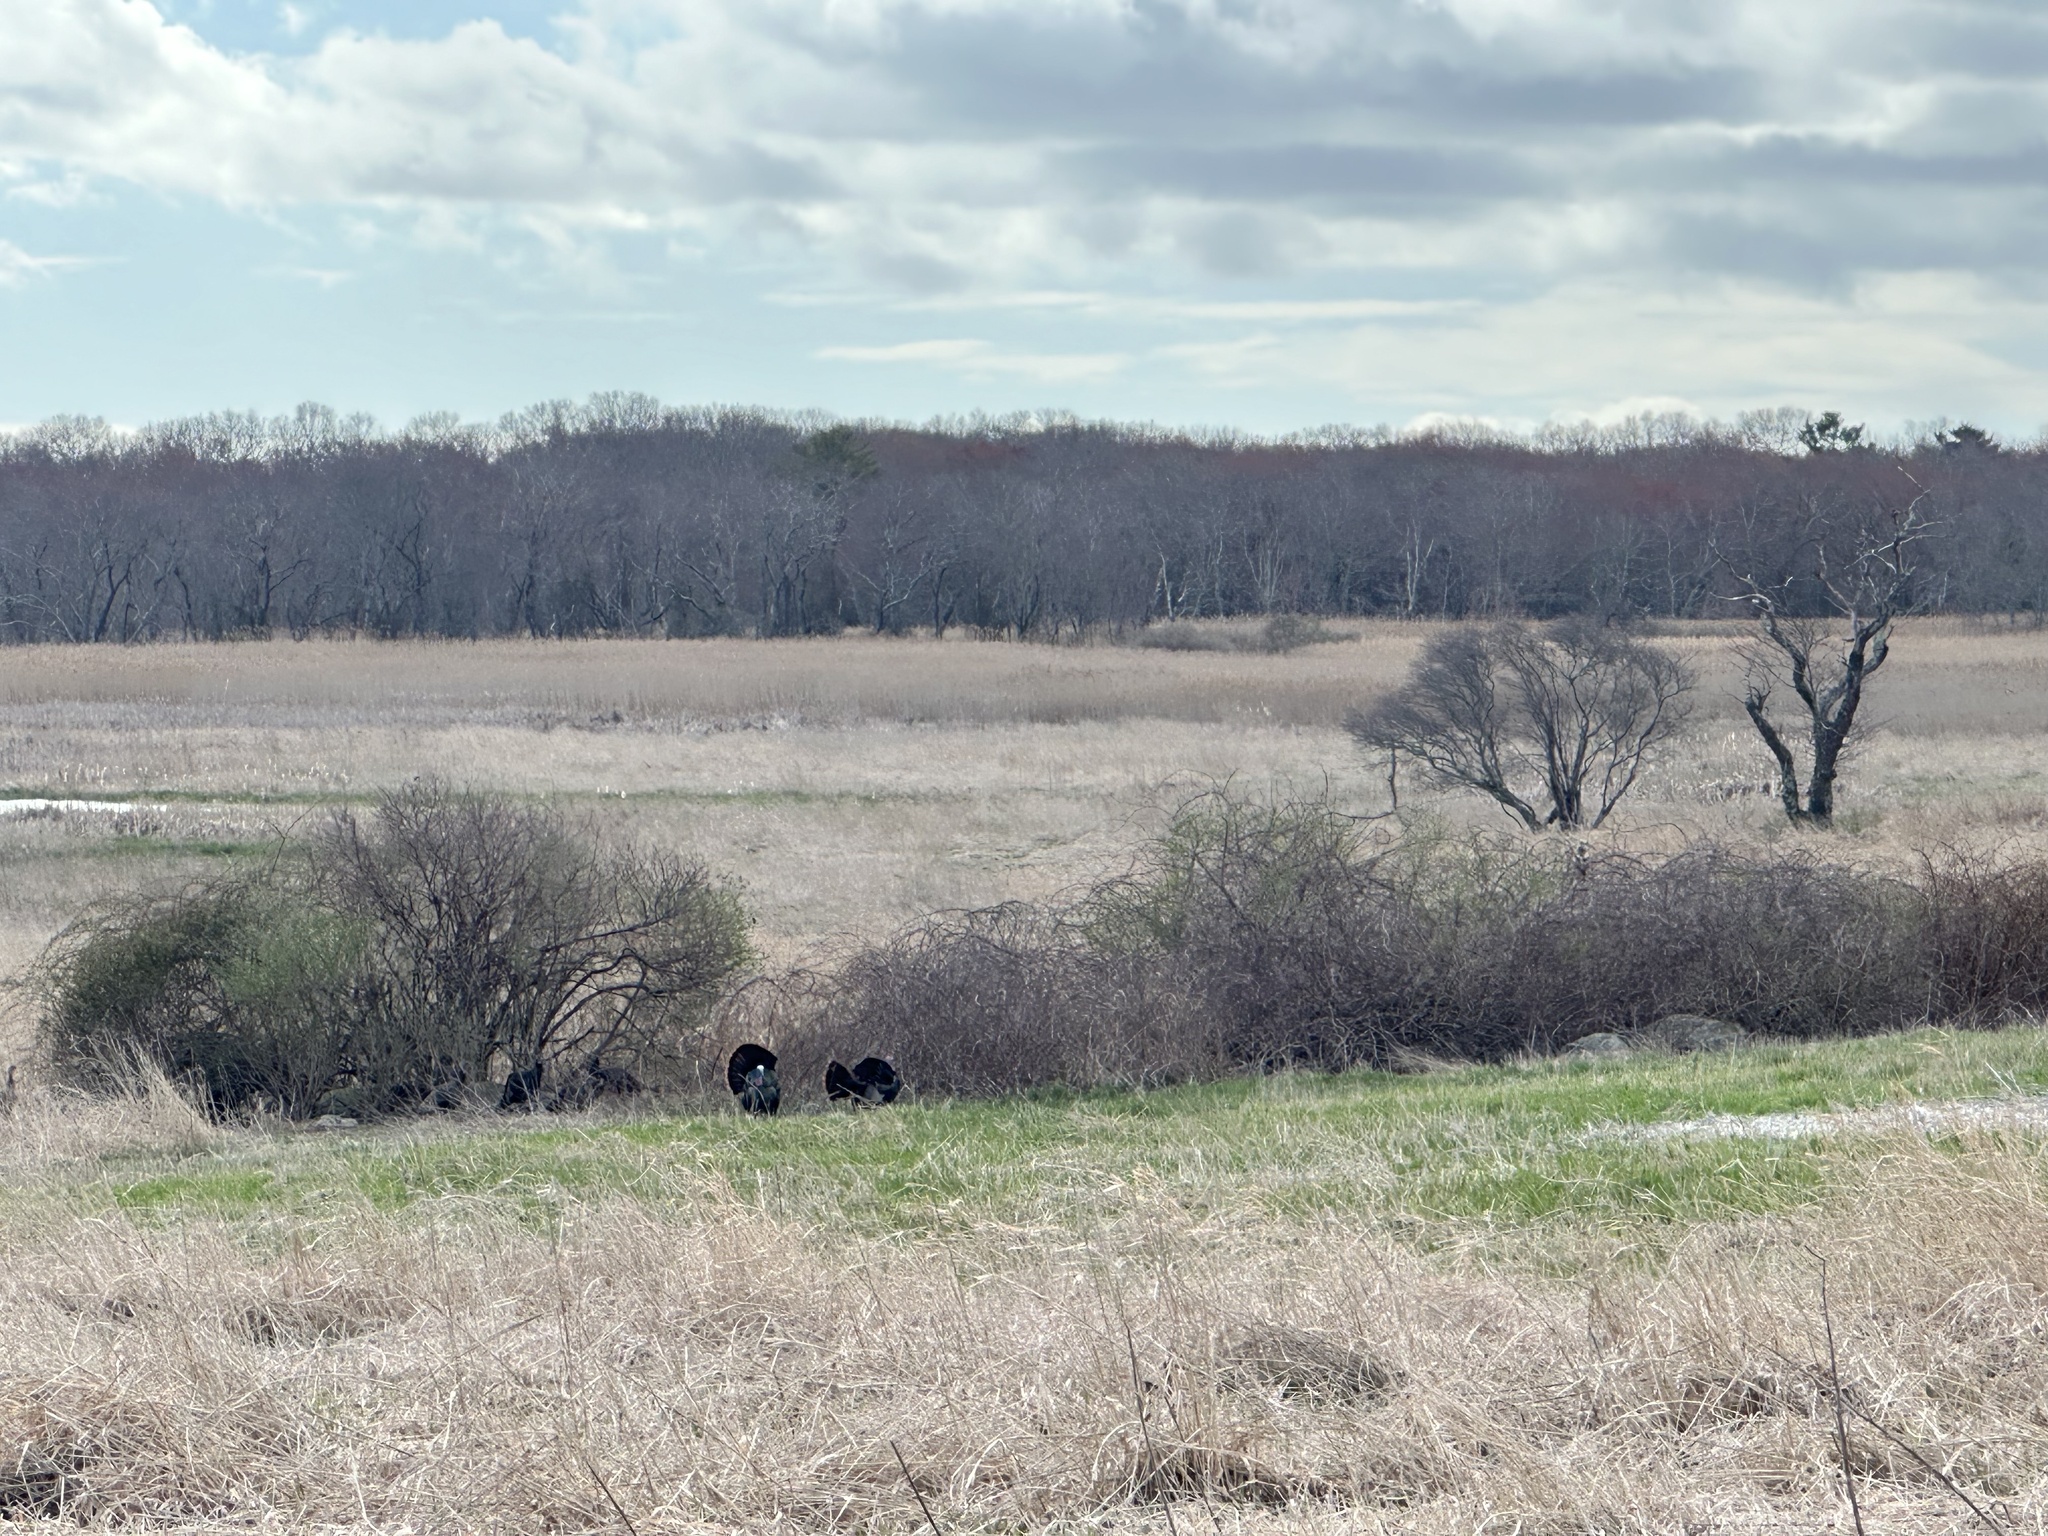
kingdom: Animalia
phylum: Chordata
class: Aves
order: Galliformes
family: Phasianidae
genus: Meleagris
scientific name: Meleagris gallopavo
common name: Wild turkey
